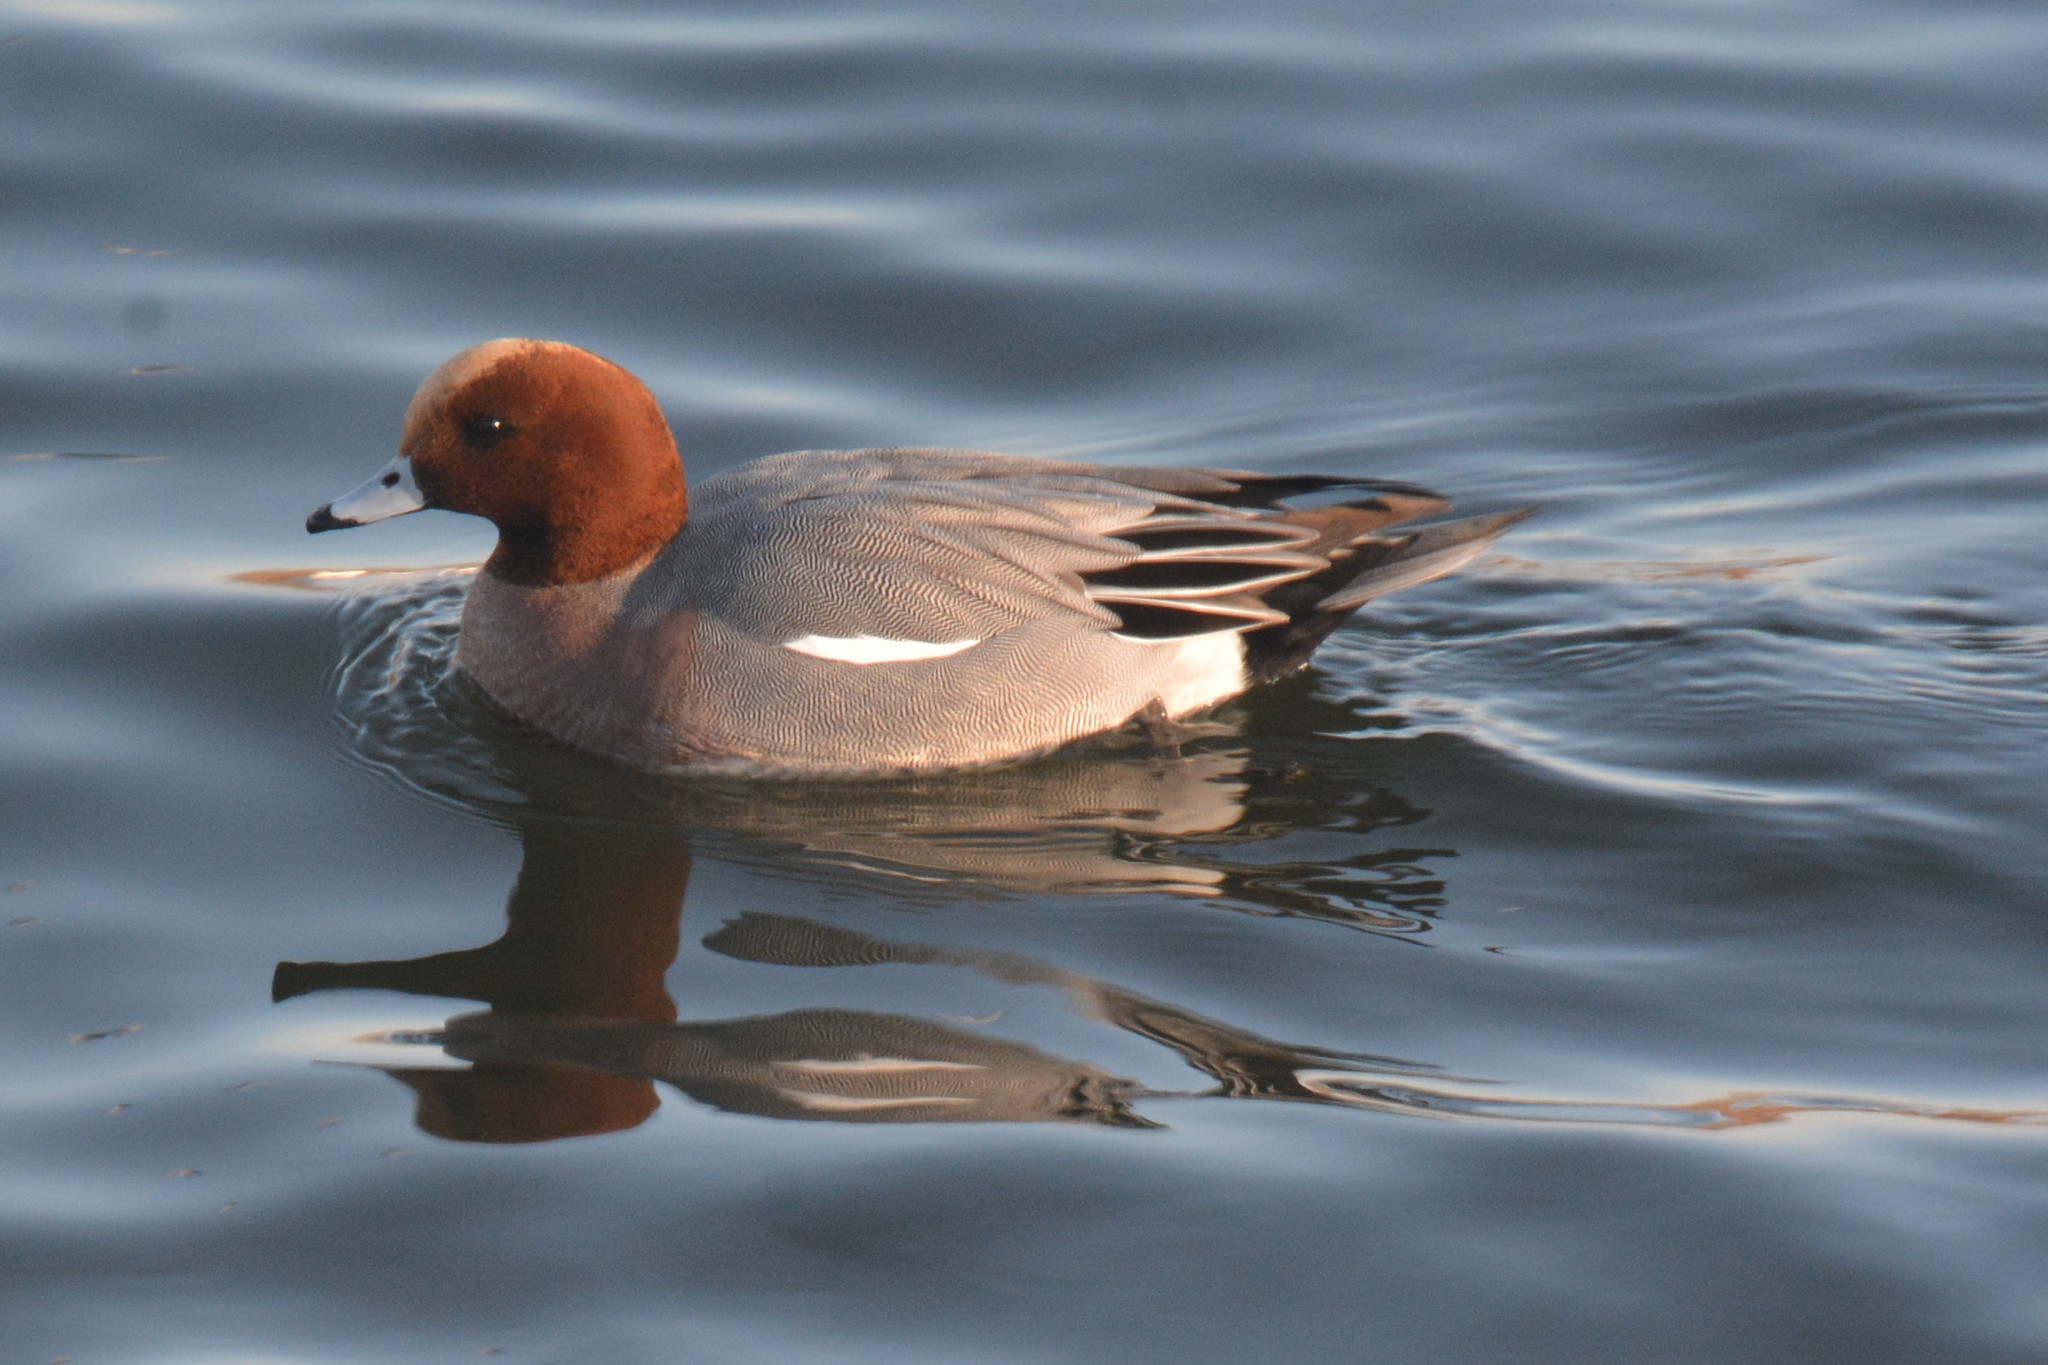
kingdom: Animalia
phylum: Chordata
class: Aves
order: Anseriformes
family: Anatidae
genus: Mareca
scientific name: Mareca penelope
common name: Eurasian wigeon
